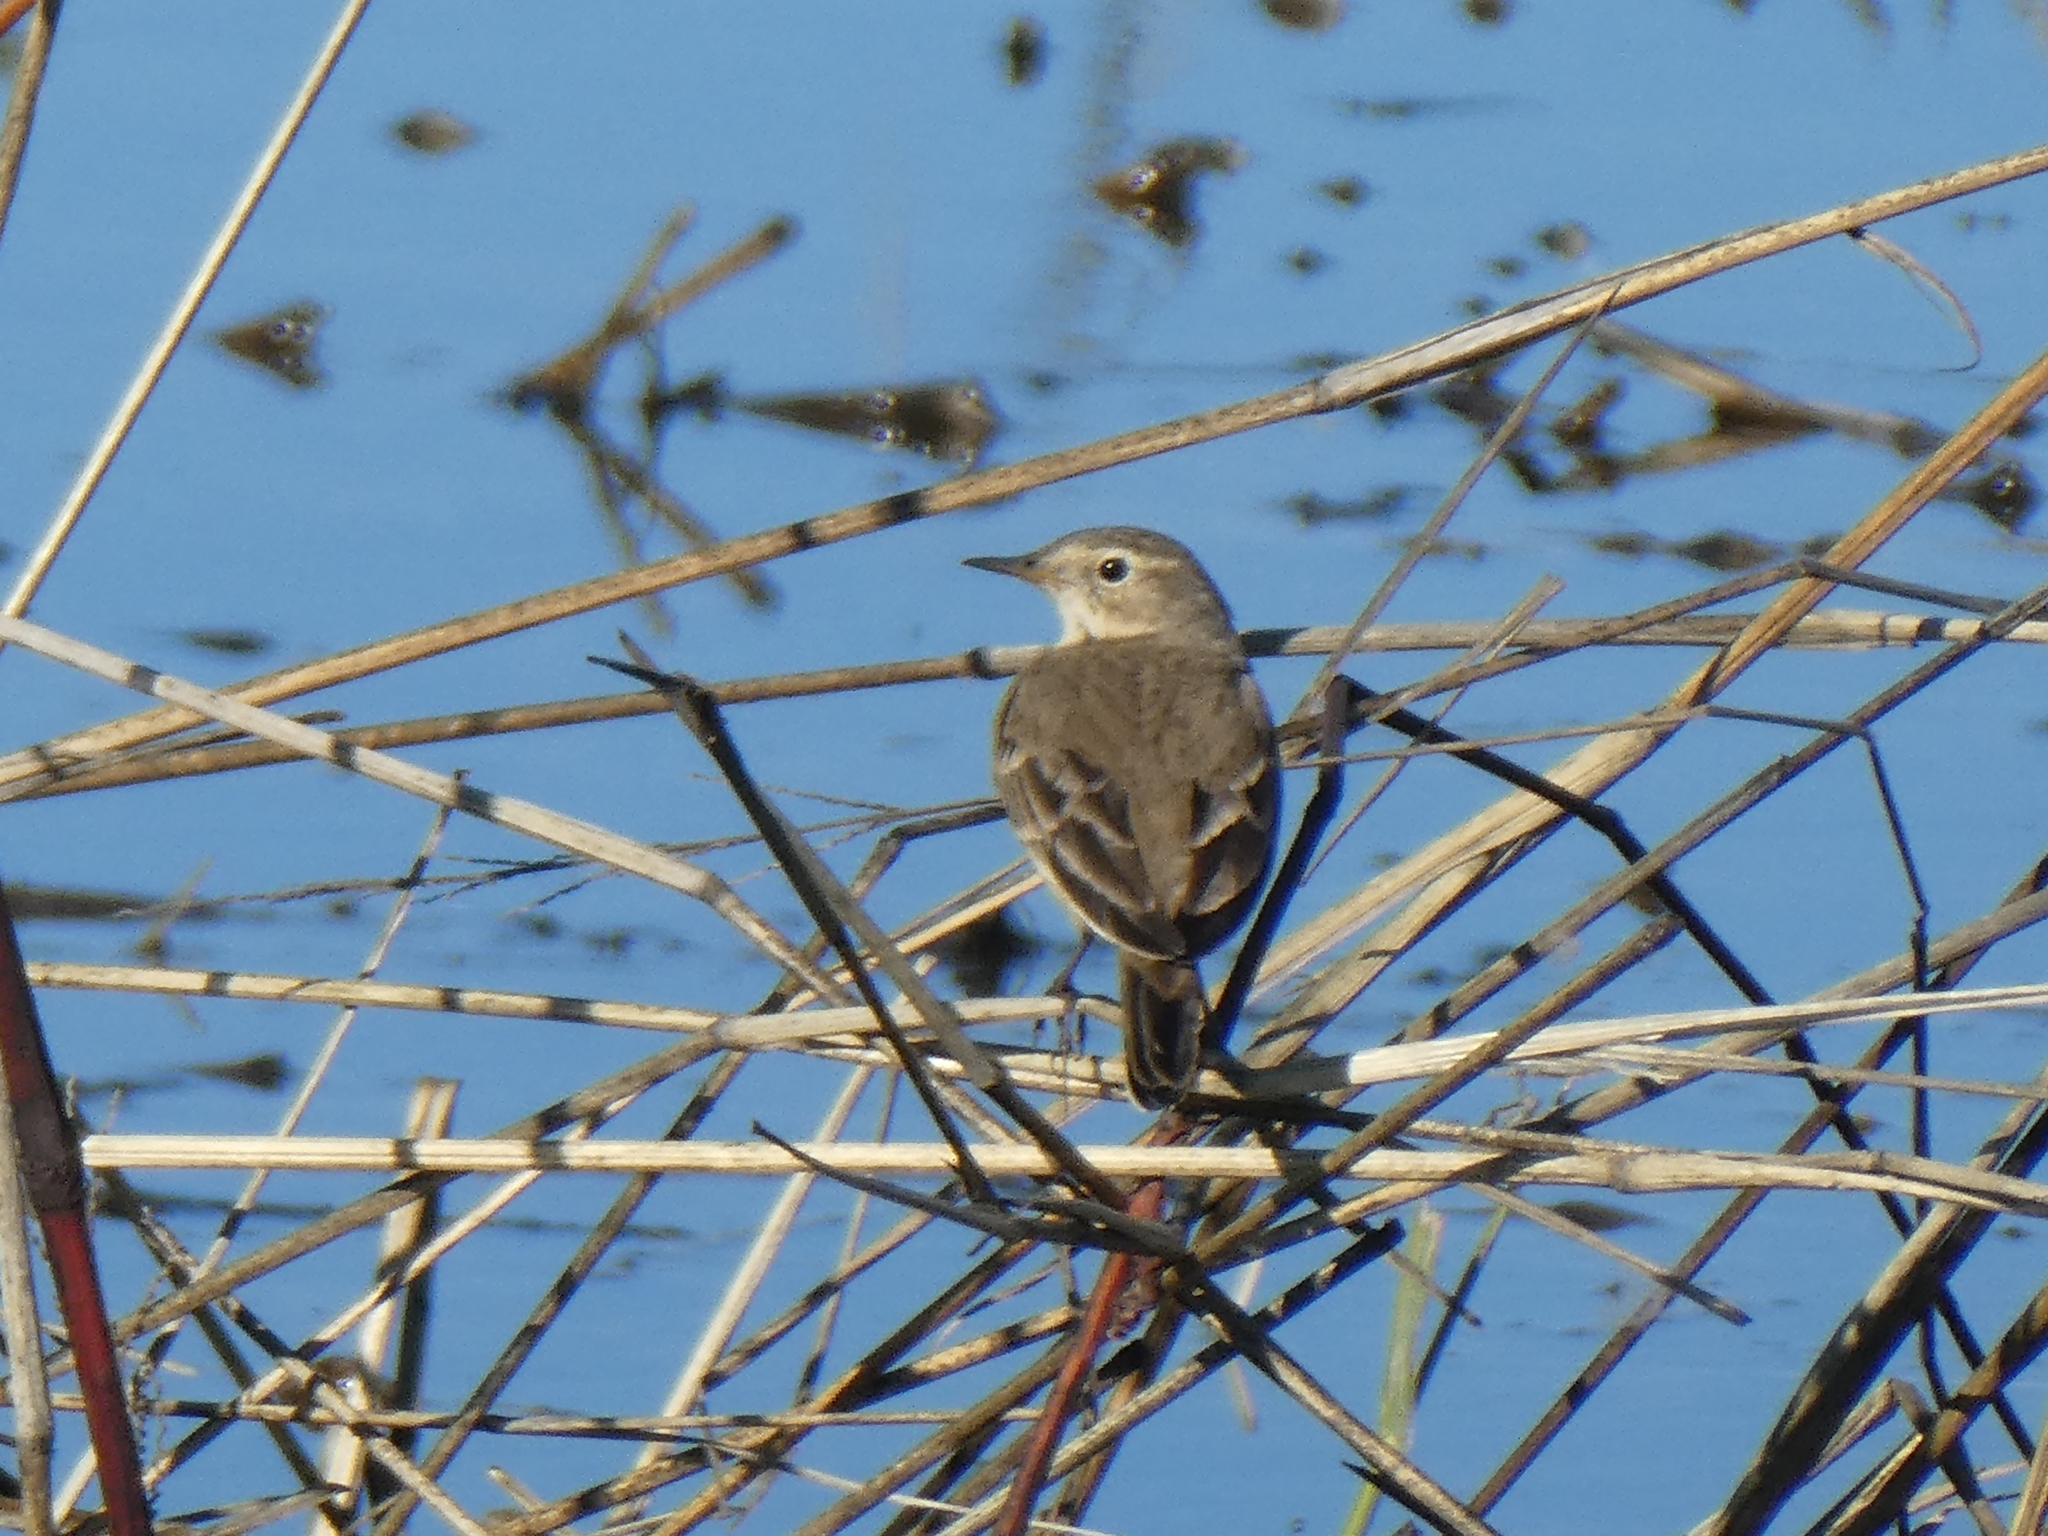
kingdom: Animalia
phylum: Chordata
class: Aves
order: Passeriformes
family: Motacillidae
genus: Anthus
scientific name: Anthus rubescens
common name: Buff-bellied pipit
